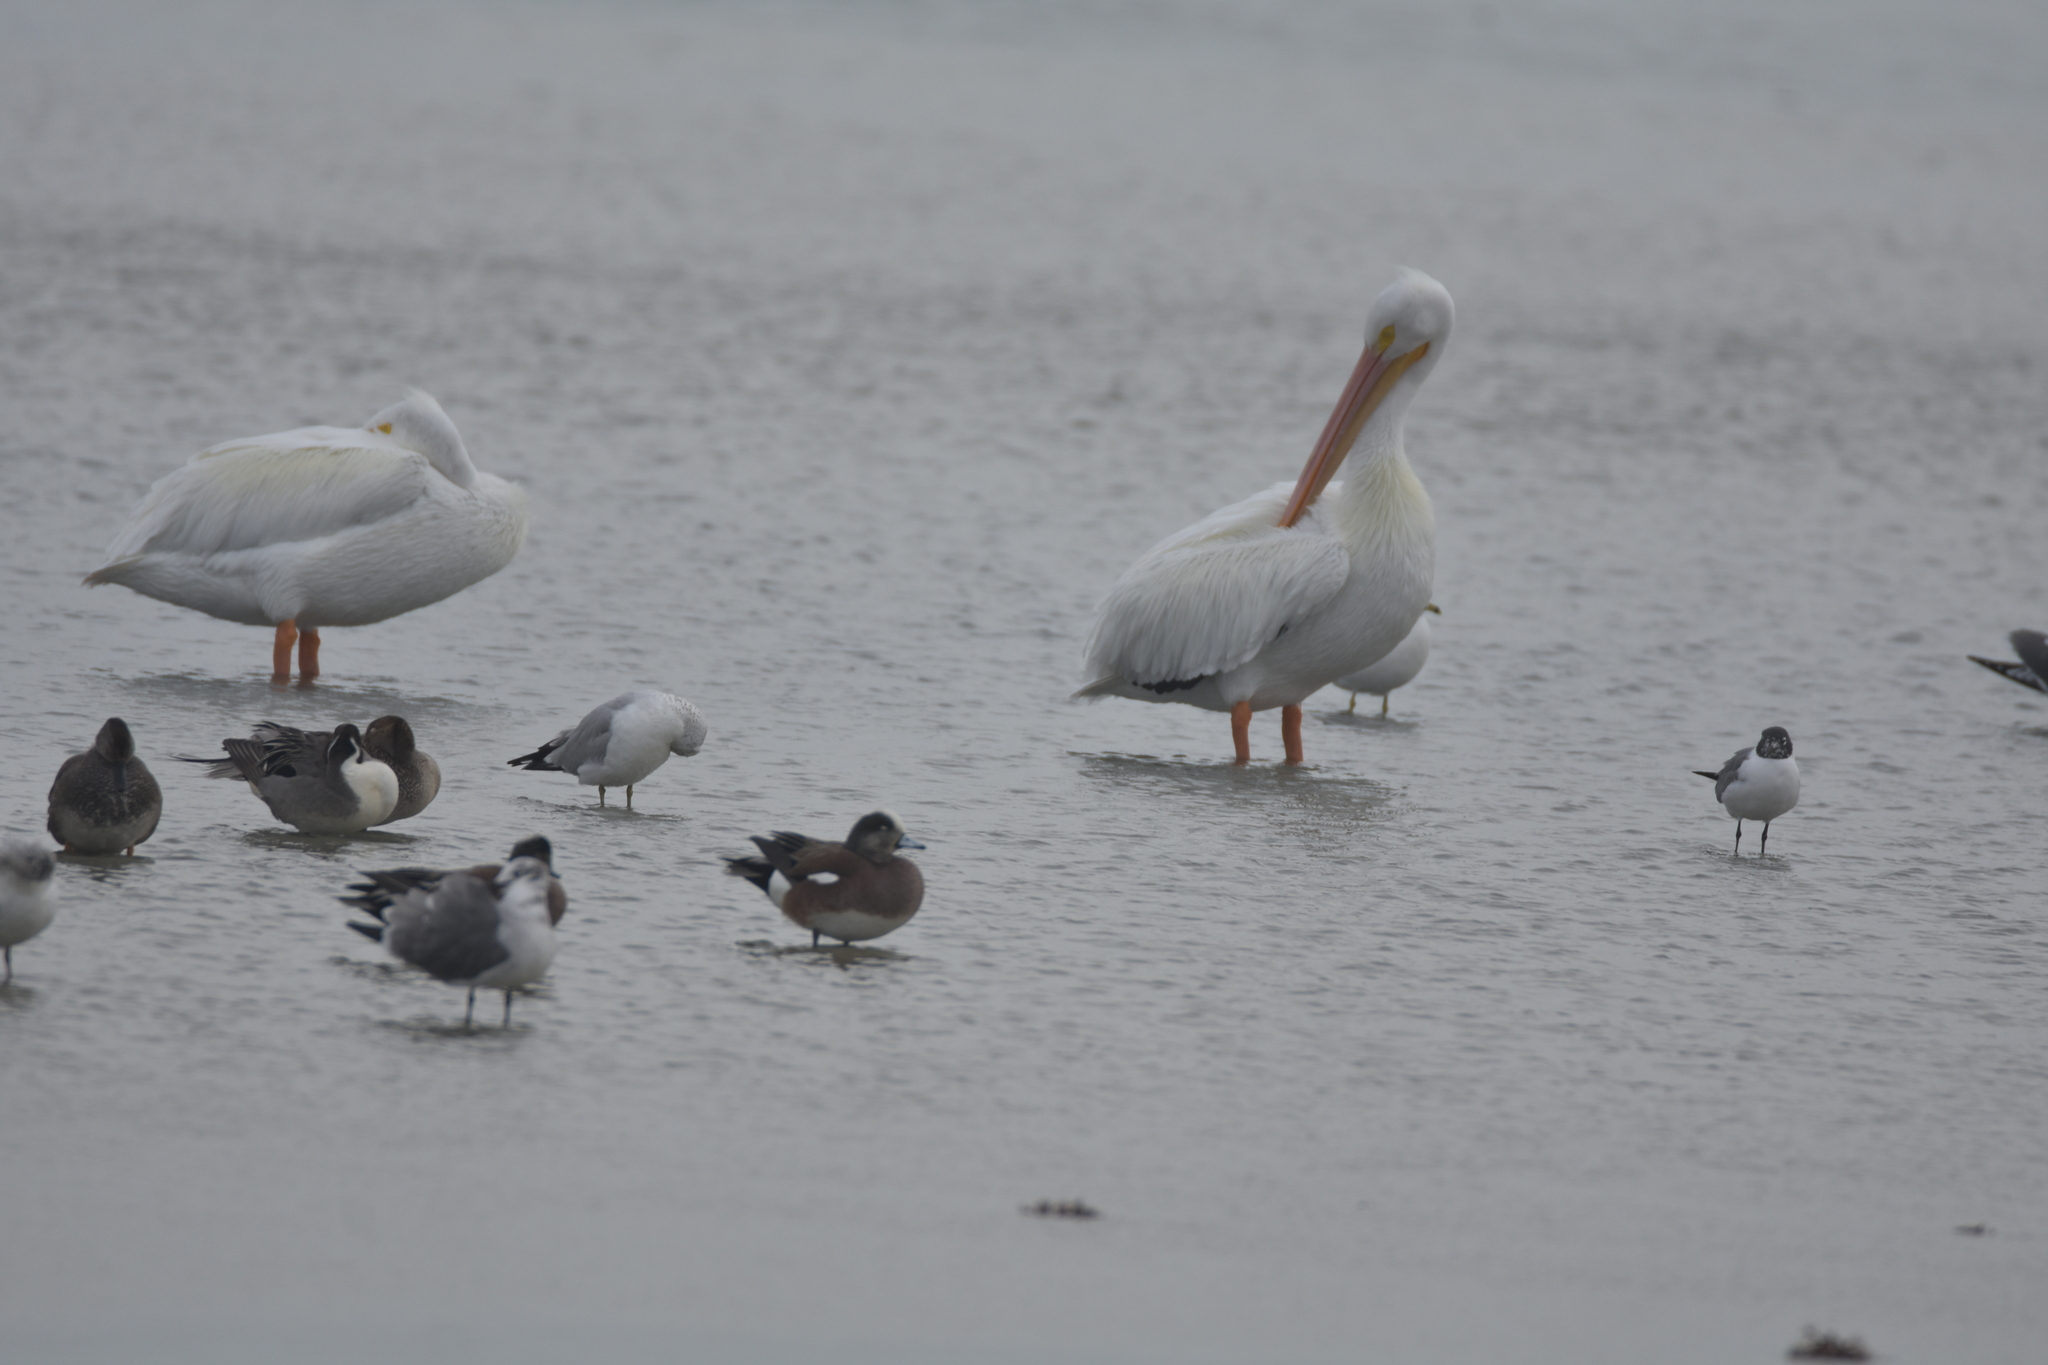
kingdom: Animalia
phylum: Chordata
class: Aves
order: Charadriiformes
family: Laridae
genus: Leucophaeus
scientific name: Leucophaeus atricilla
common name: Laughing gull
